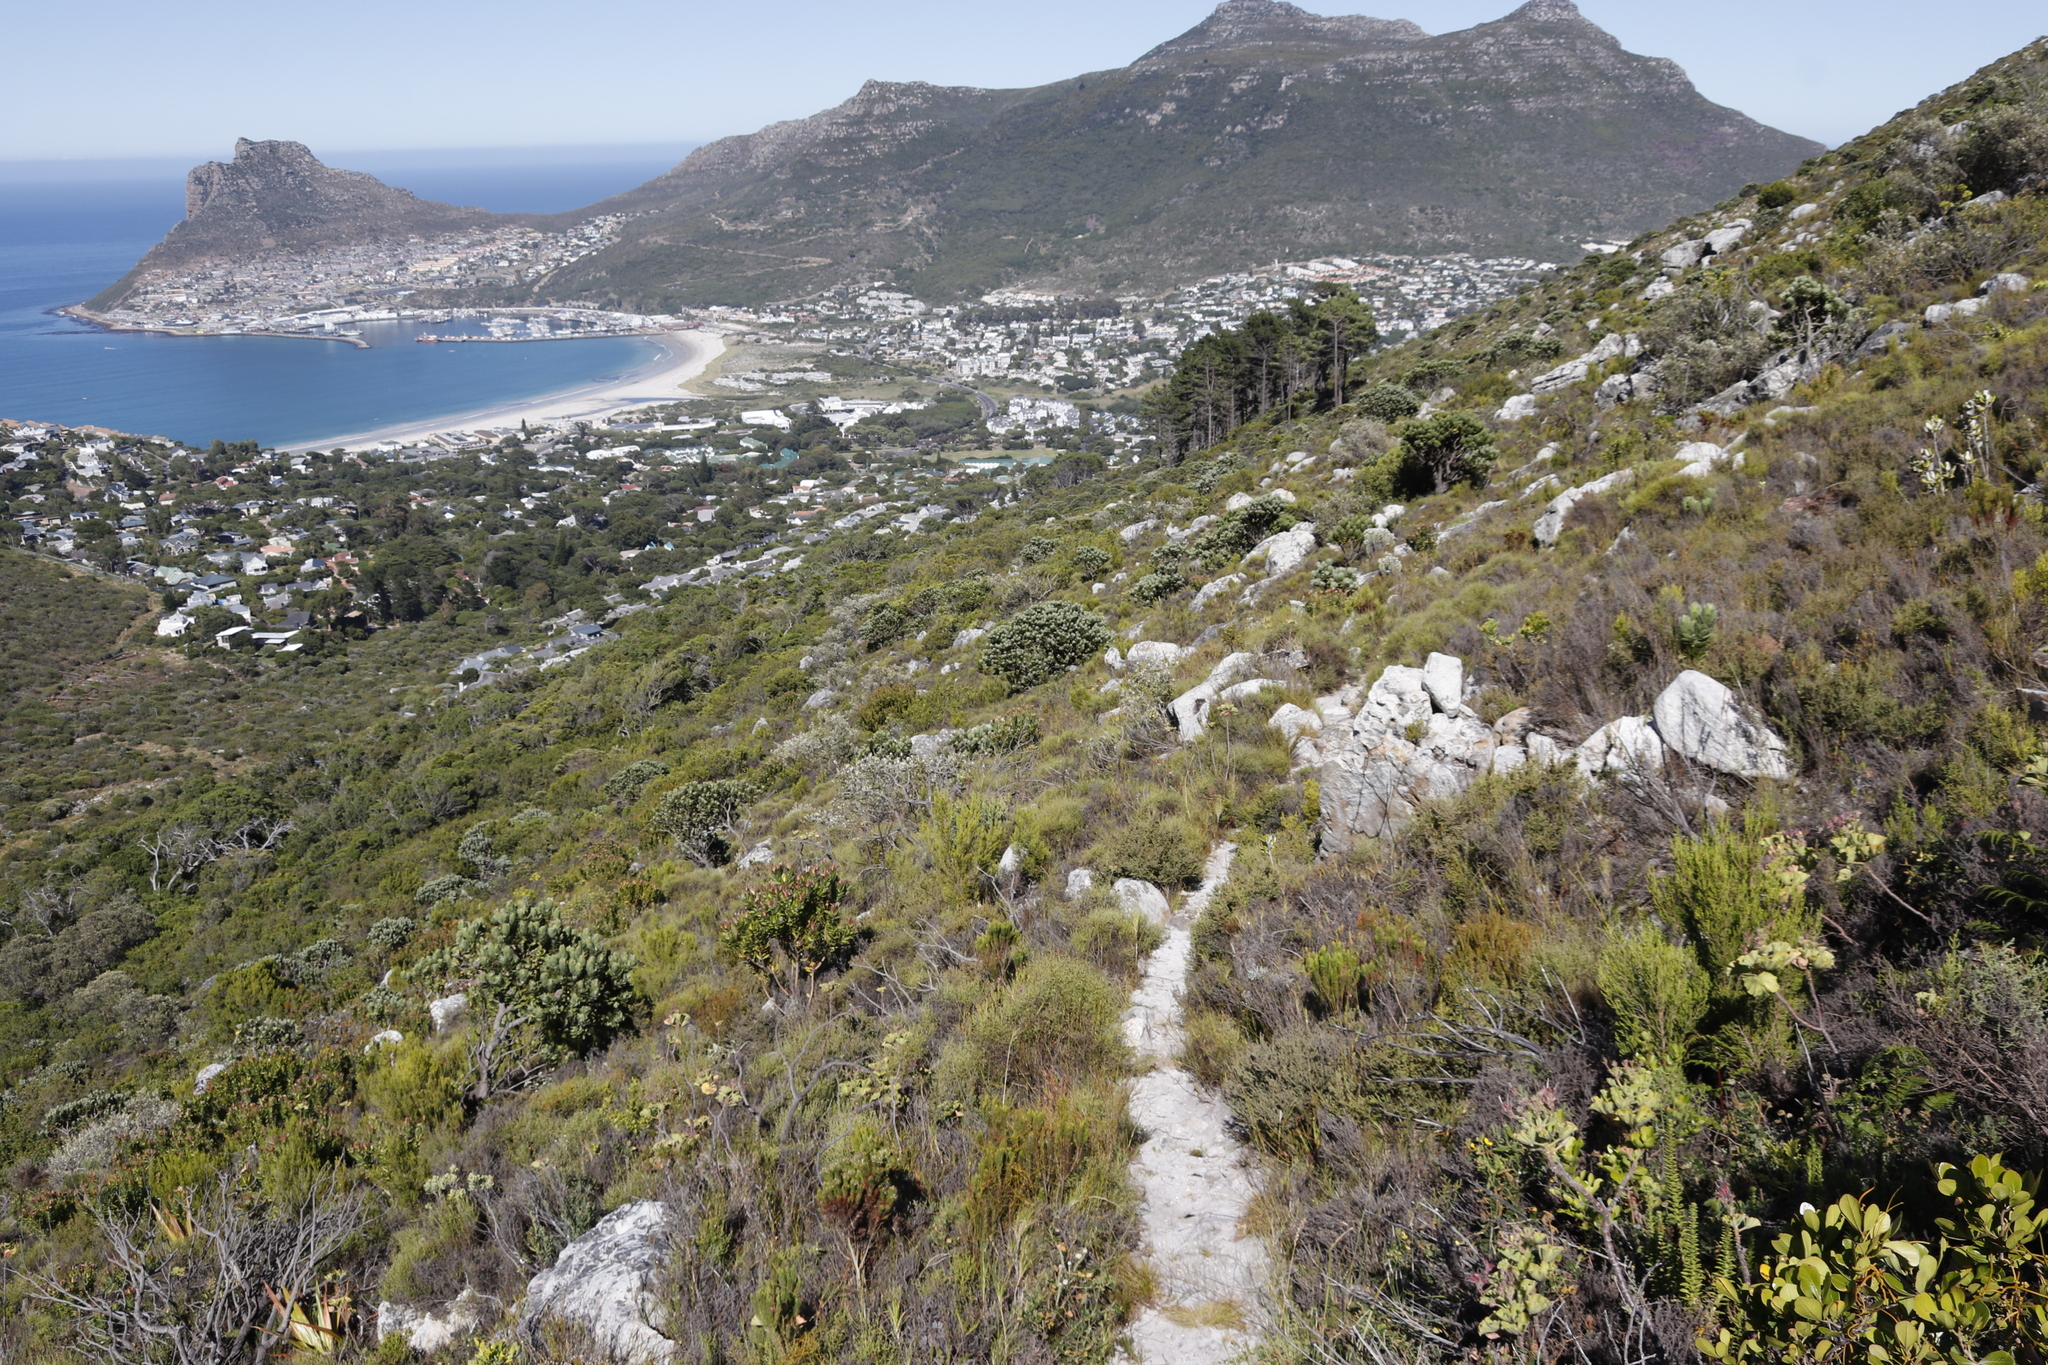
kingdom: Plantae
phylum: Tracheophyta
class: Magnoliopsida
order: Proteales
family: Proteaceae
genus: Leucospermum
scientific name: Leucospermum conocarpodendron
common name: Tree pincushion
